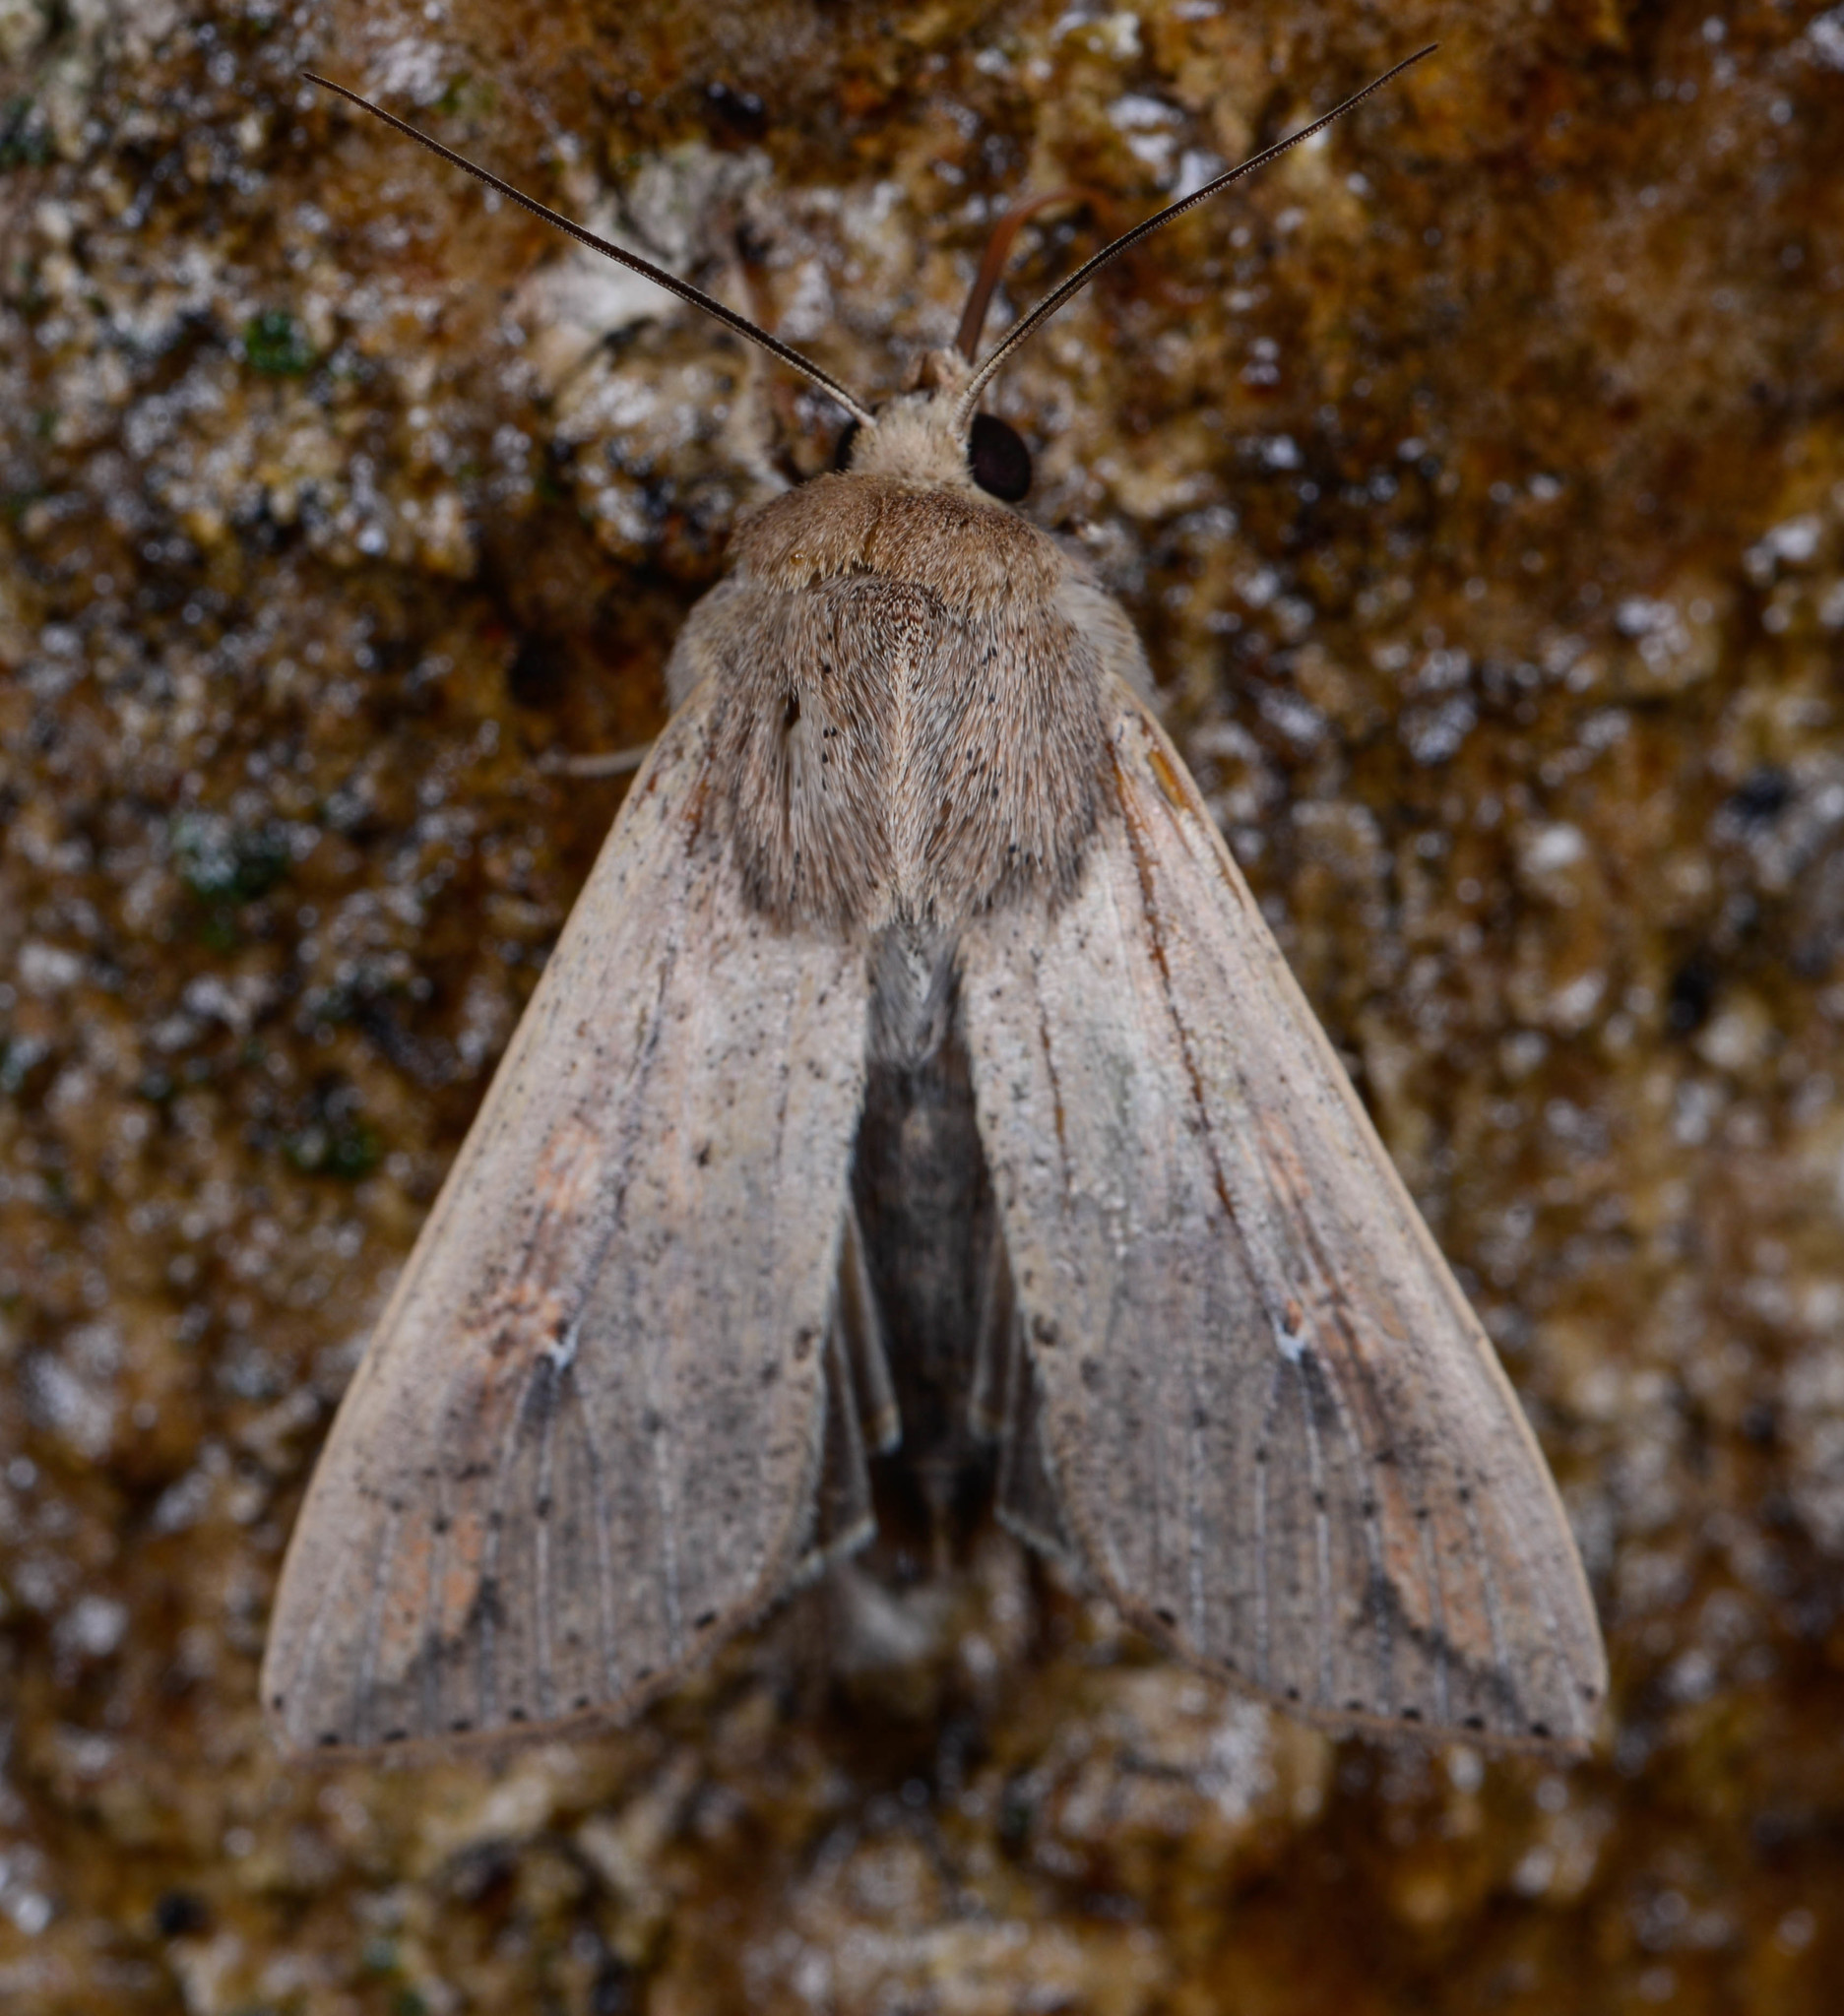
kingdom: Animalia
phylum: Arthropoda
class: Insecta
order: Lepidoptera
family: Noctuidae
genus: Mythimna
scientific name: Mythimna unipuncta
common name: White-speck
